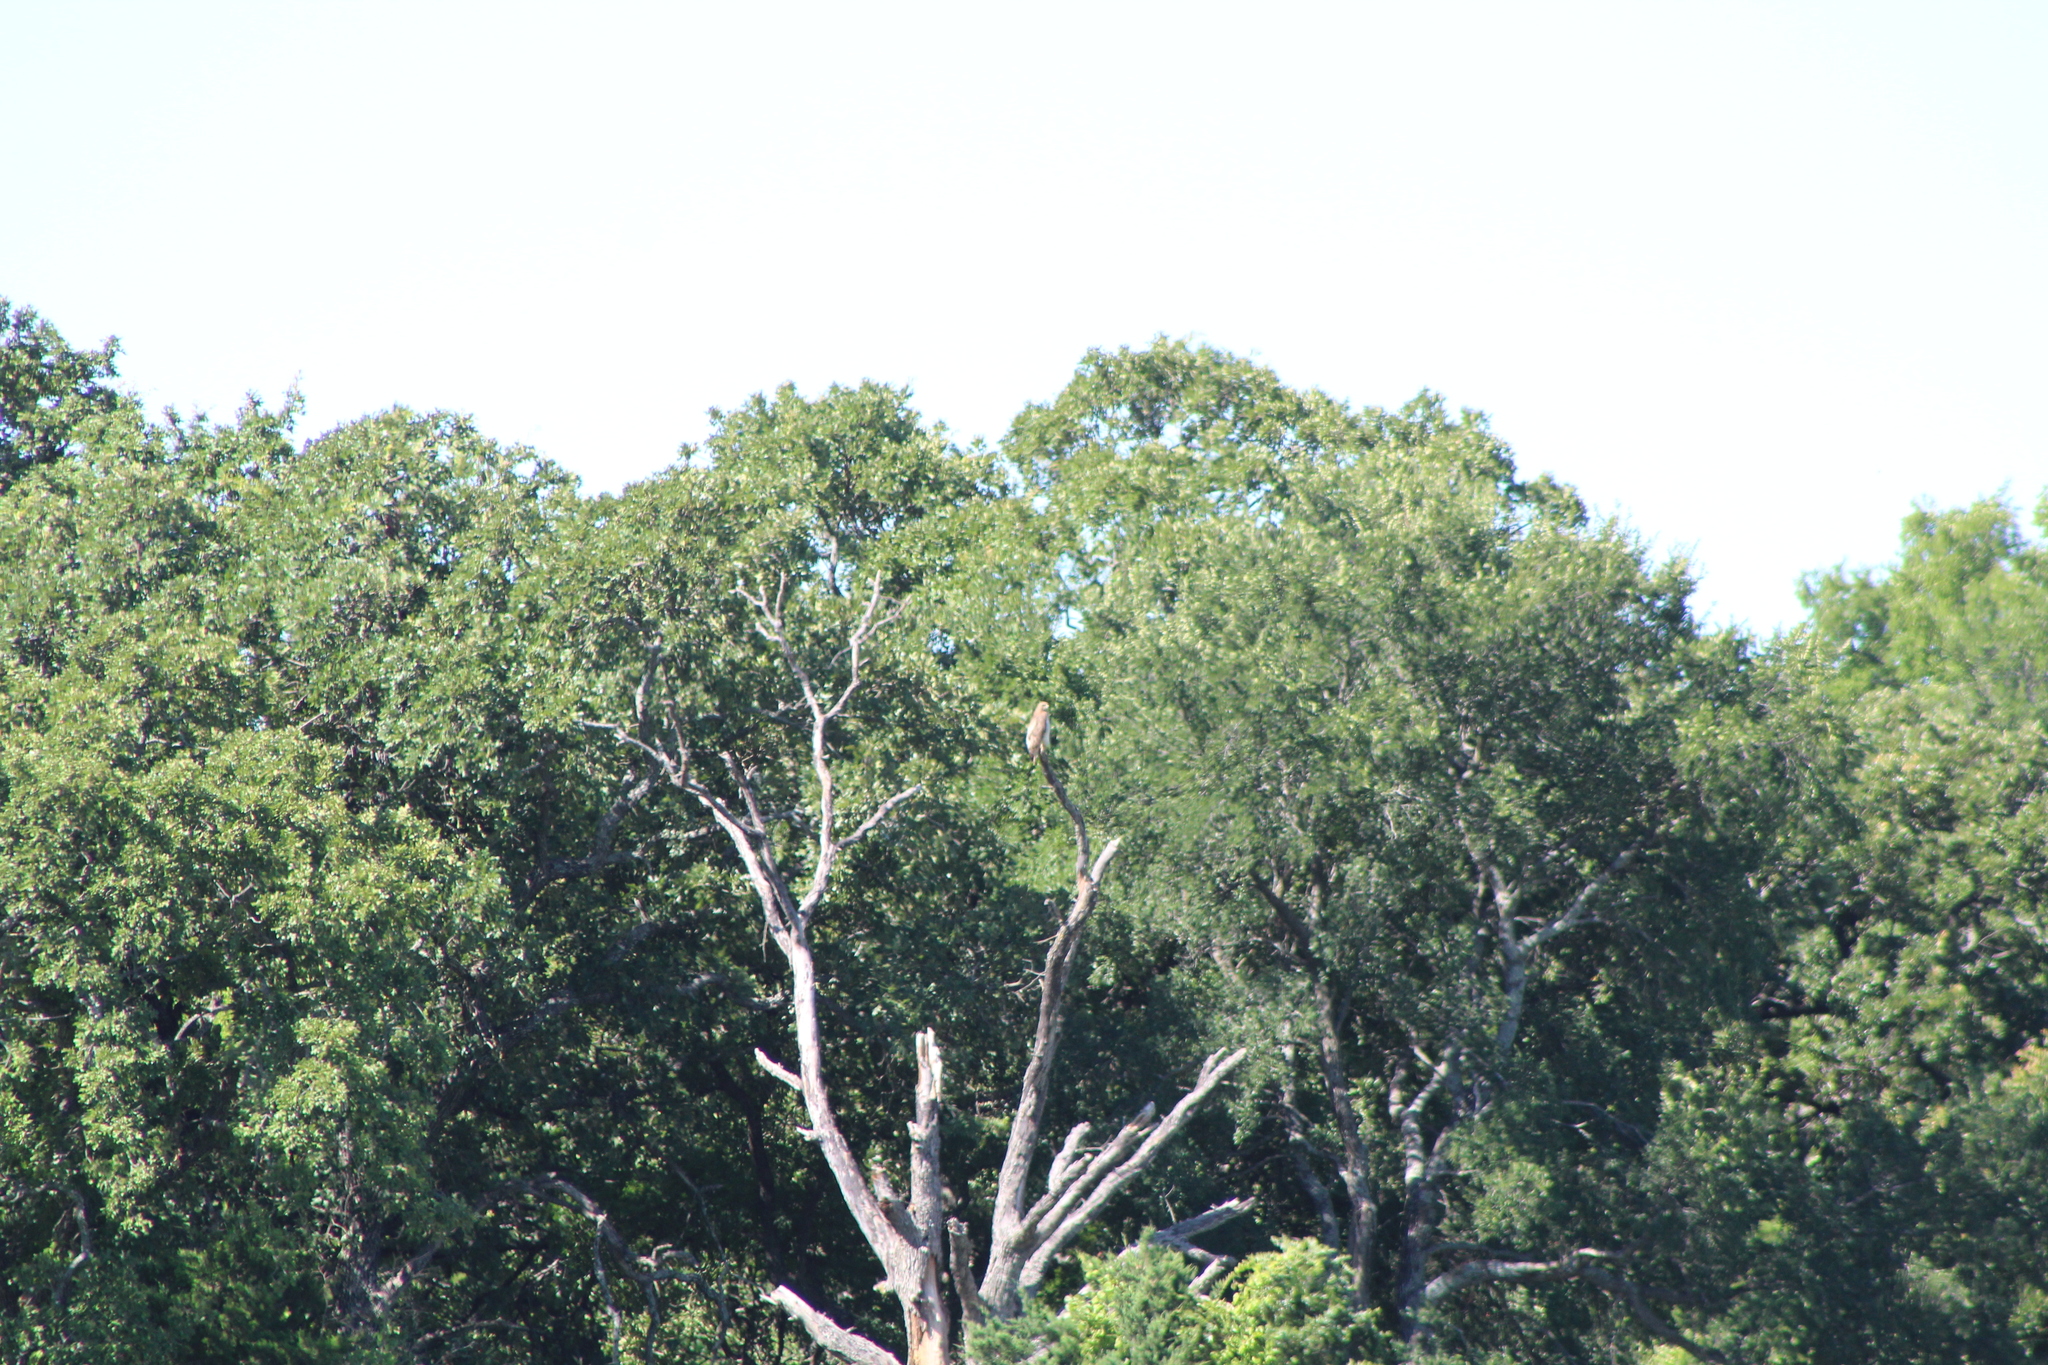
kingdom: Animalia
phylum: Chordata
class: Aves
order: Accipitriformes
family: Accipitridae
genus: Buteo
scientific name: Buteo jamaicensis
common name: Red-tailed hawk
